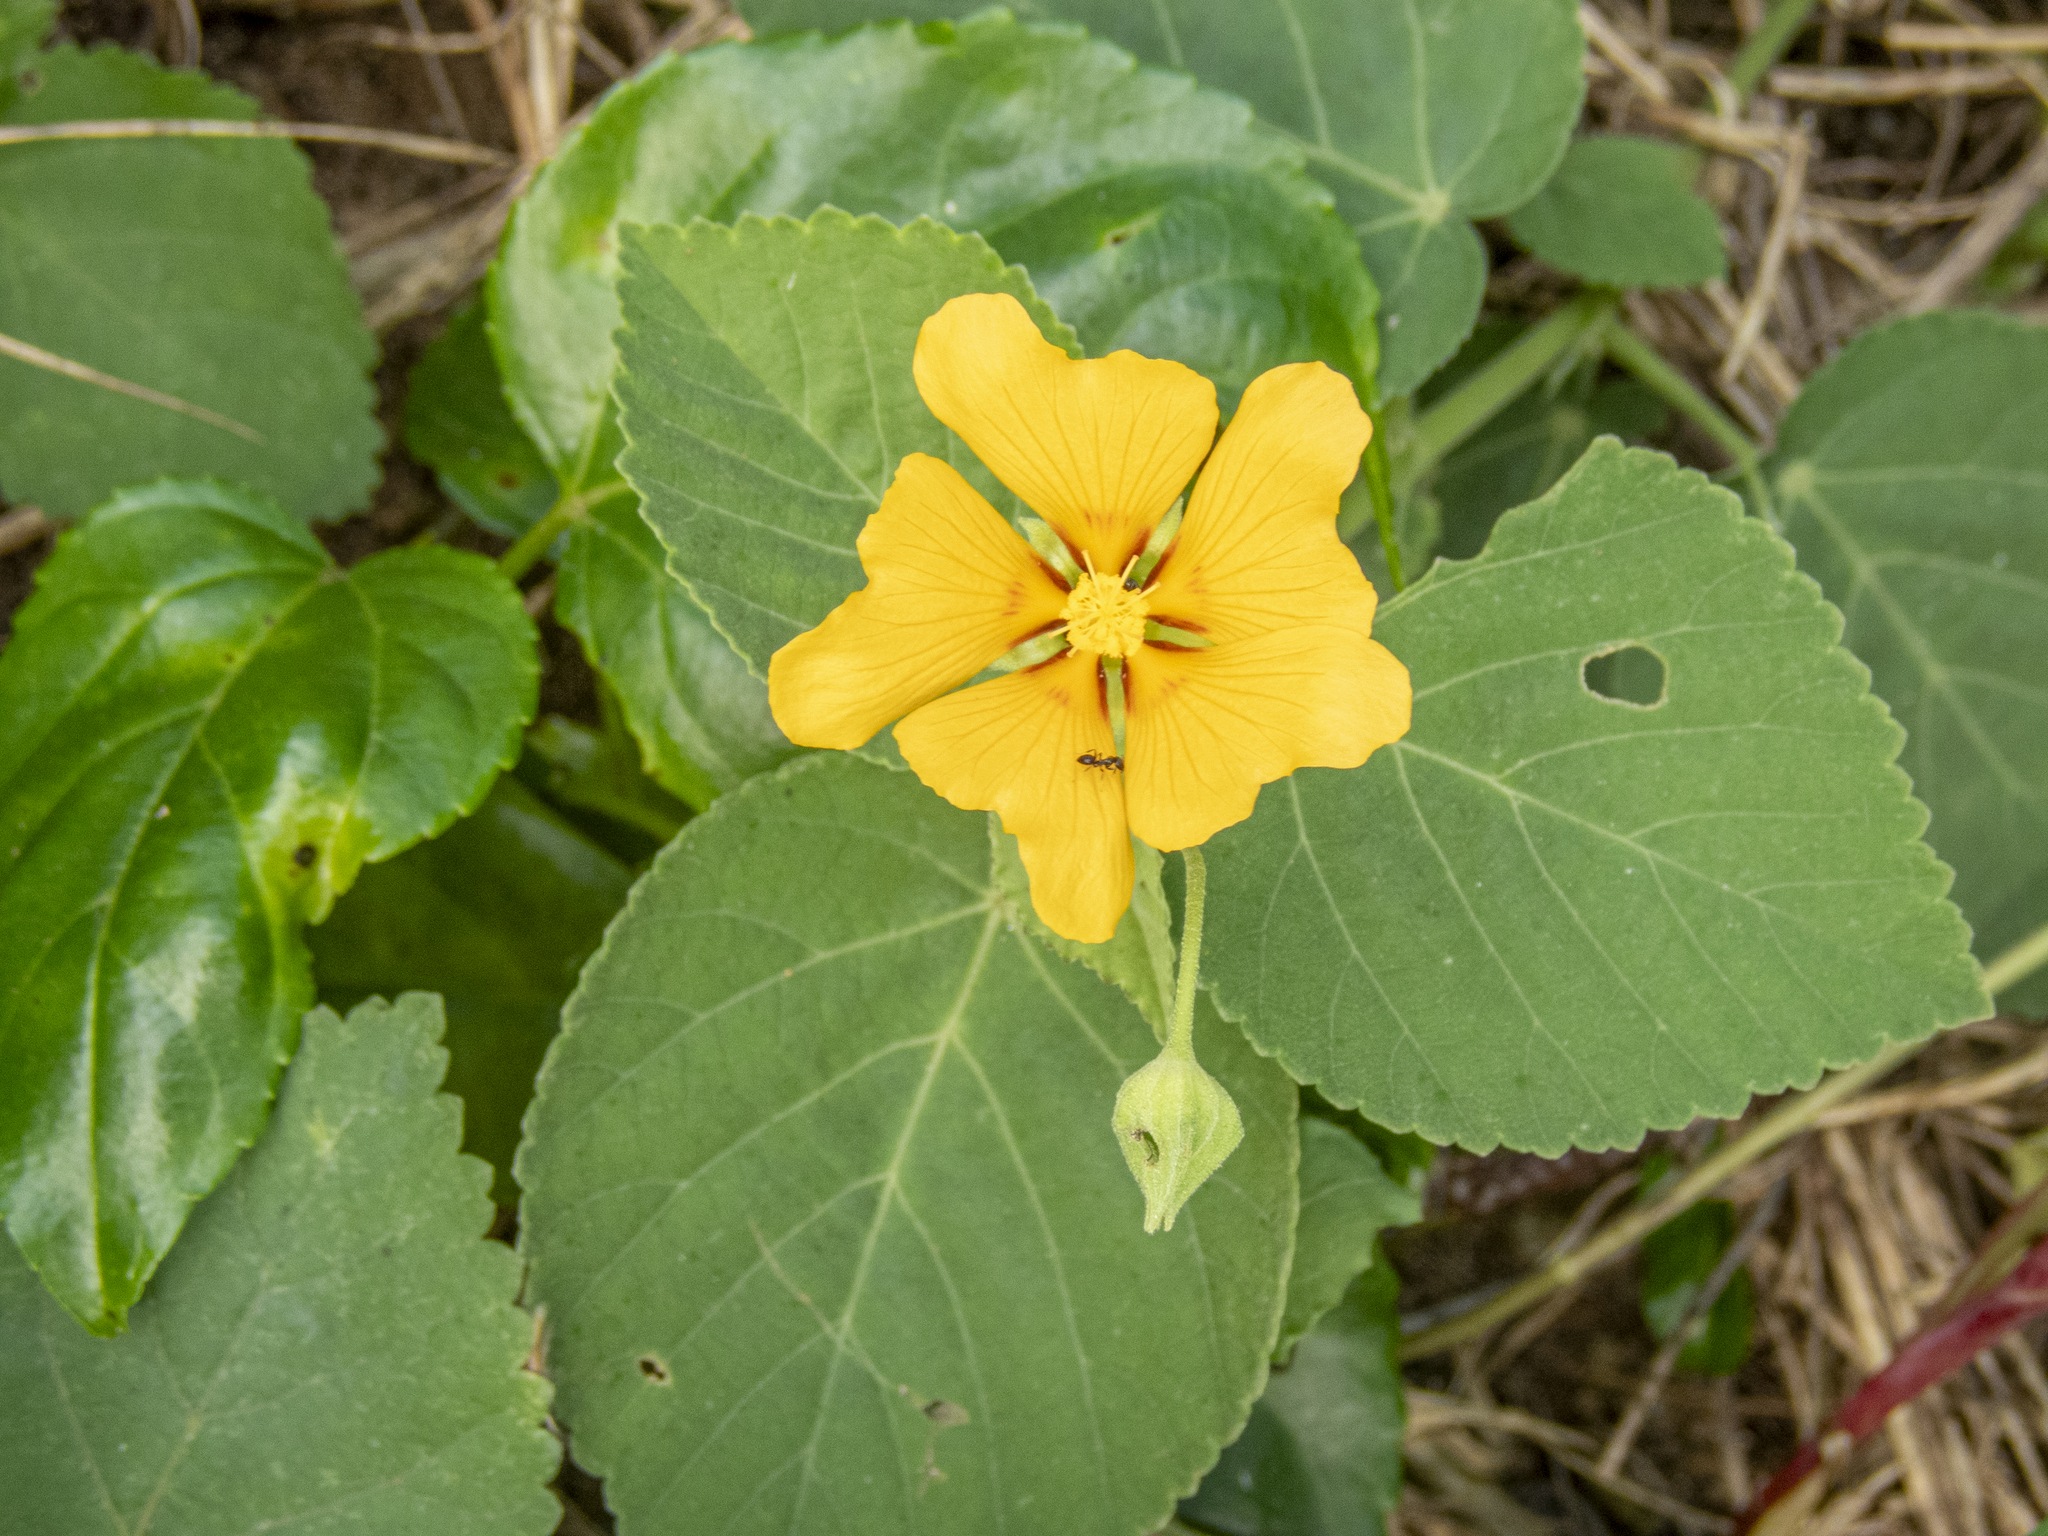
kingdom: Plantae
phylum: Tracheophyta
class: Magnoliopsida
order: Malvales
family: Malvaceae
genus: Sida
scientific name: Sida fallax
